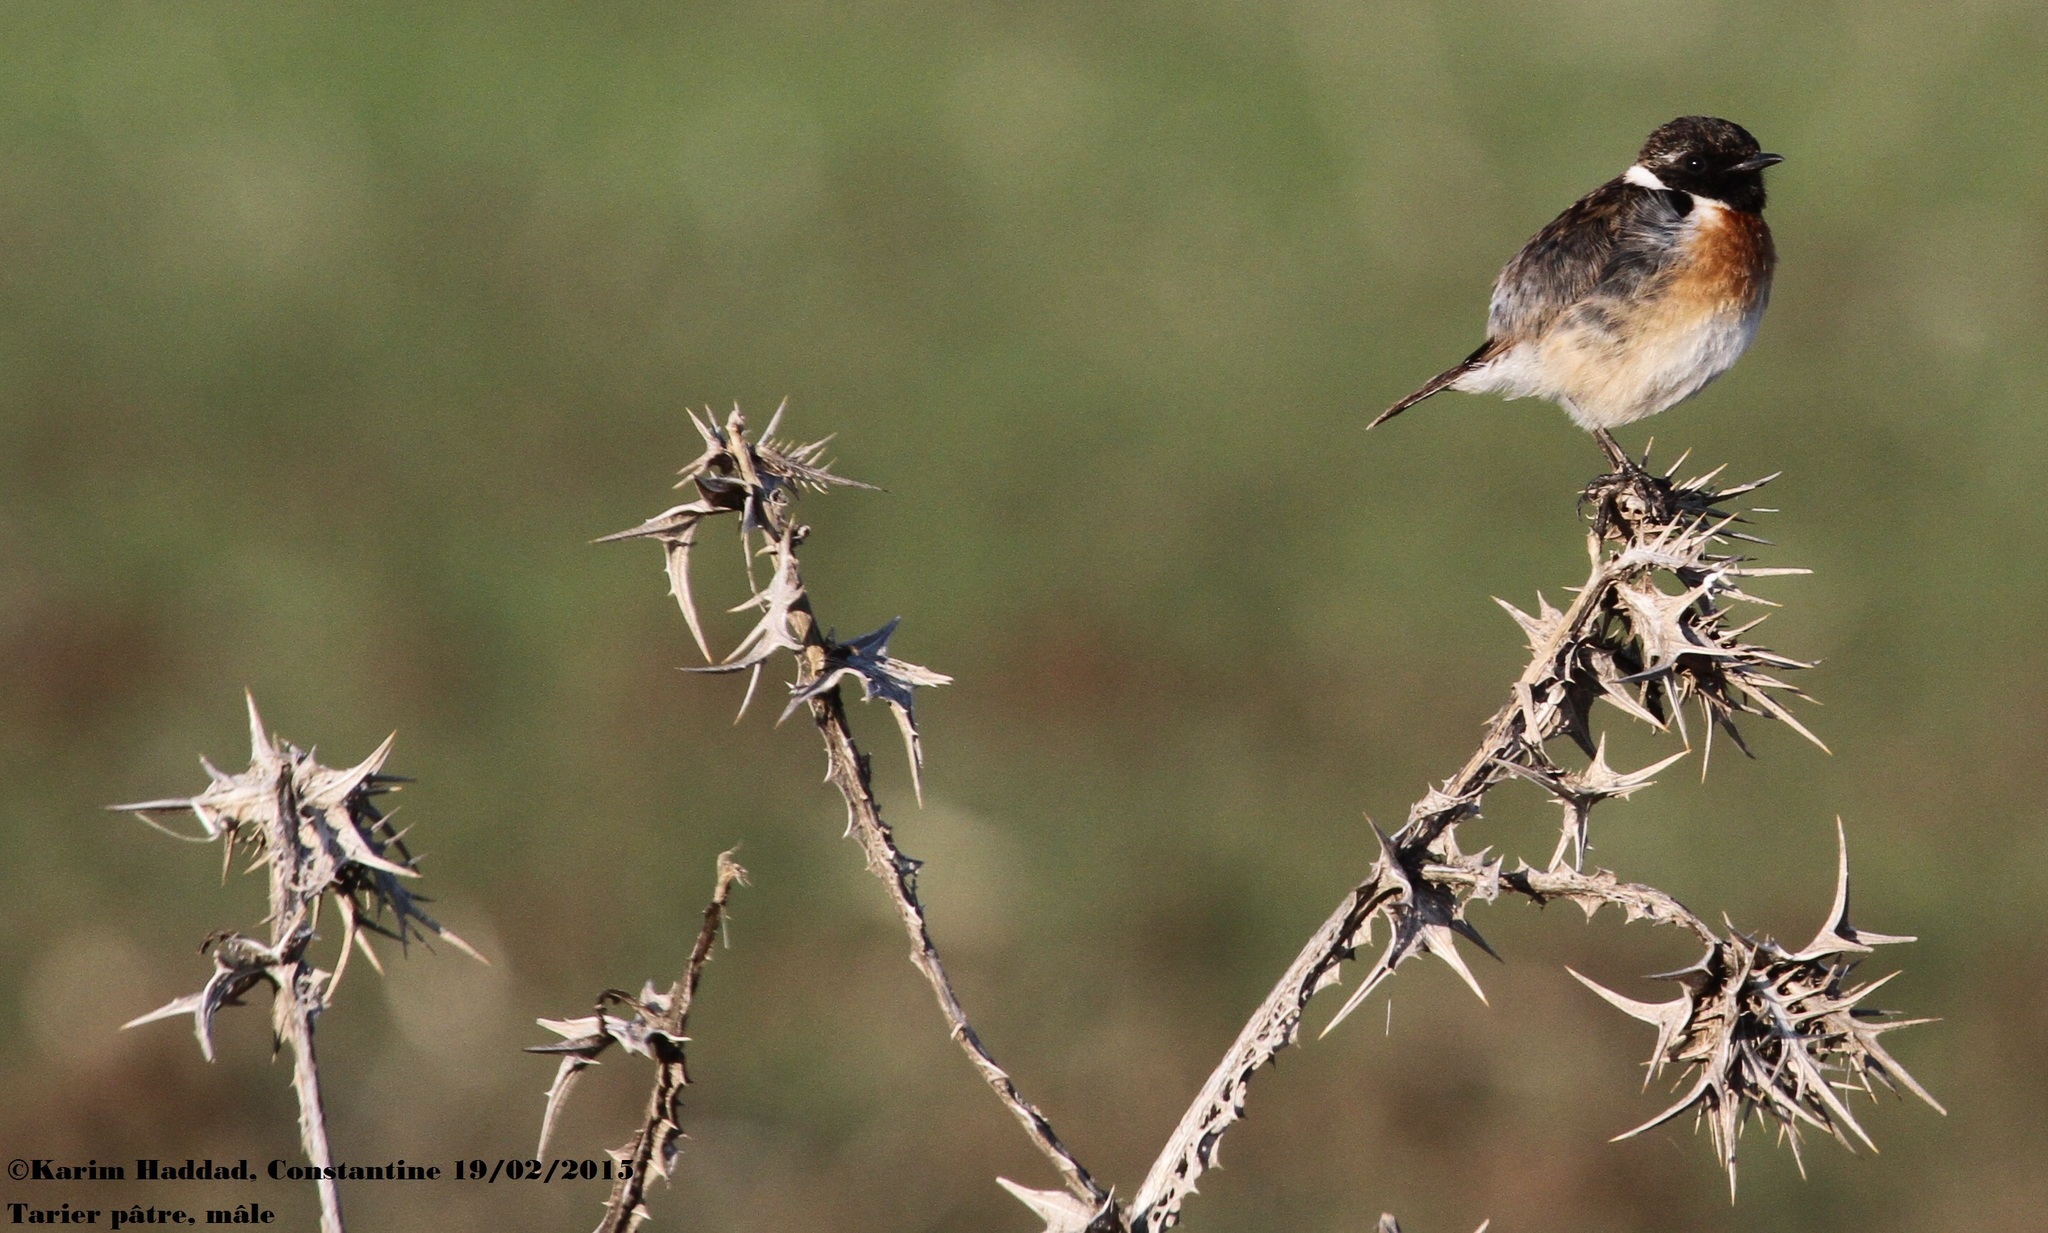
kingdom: Animalia
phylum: Chordata
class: Aves
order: Passeriformes
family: Muscicapidae
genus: Saxicola
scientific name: Saxicola rubicola
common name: European stonechat
